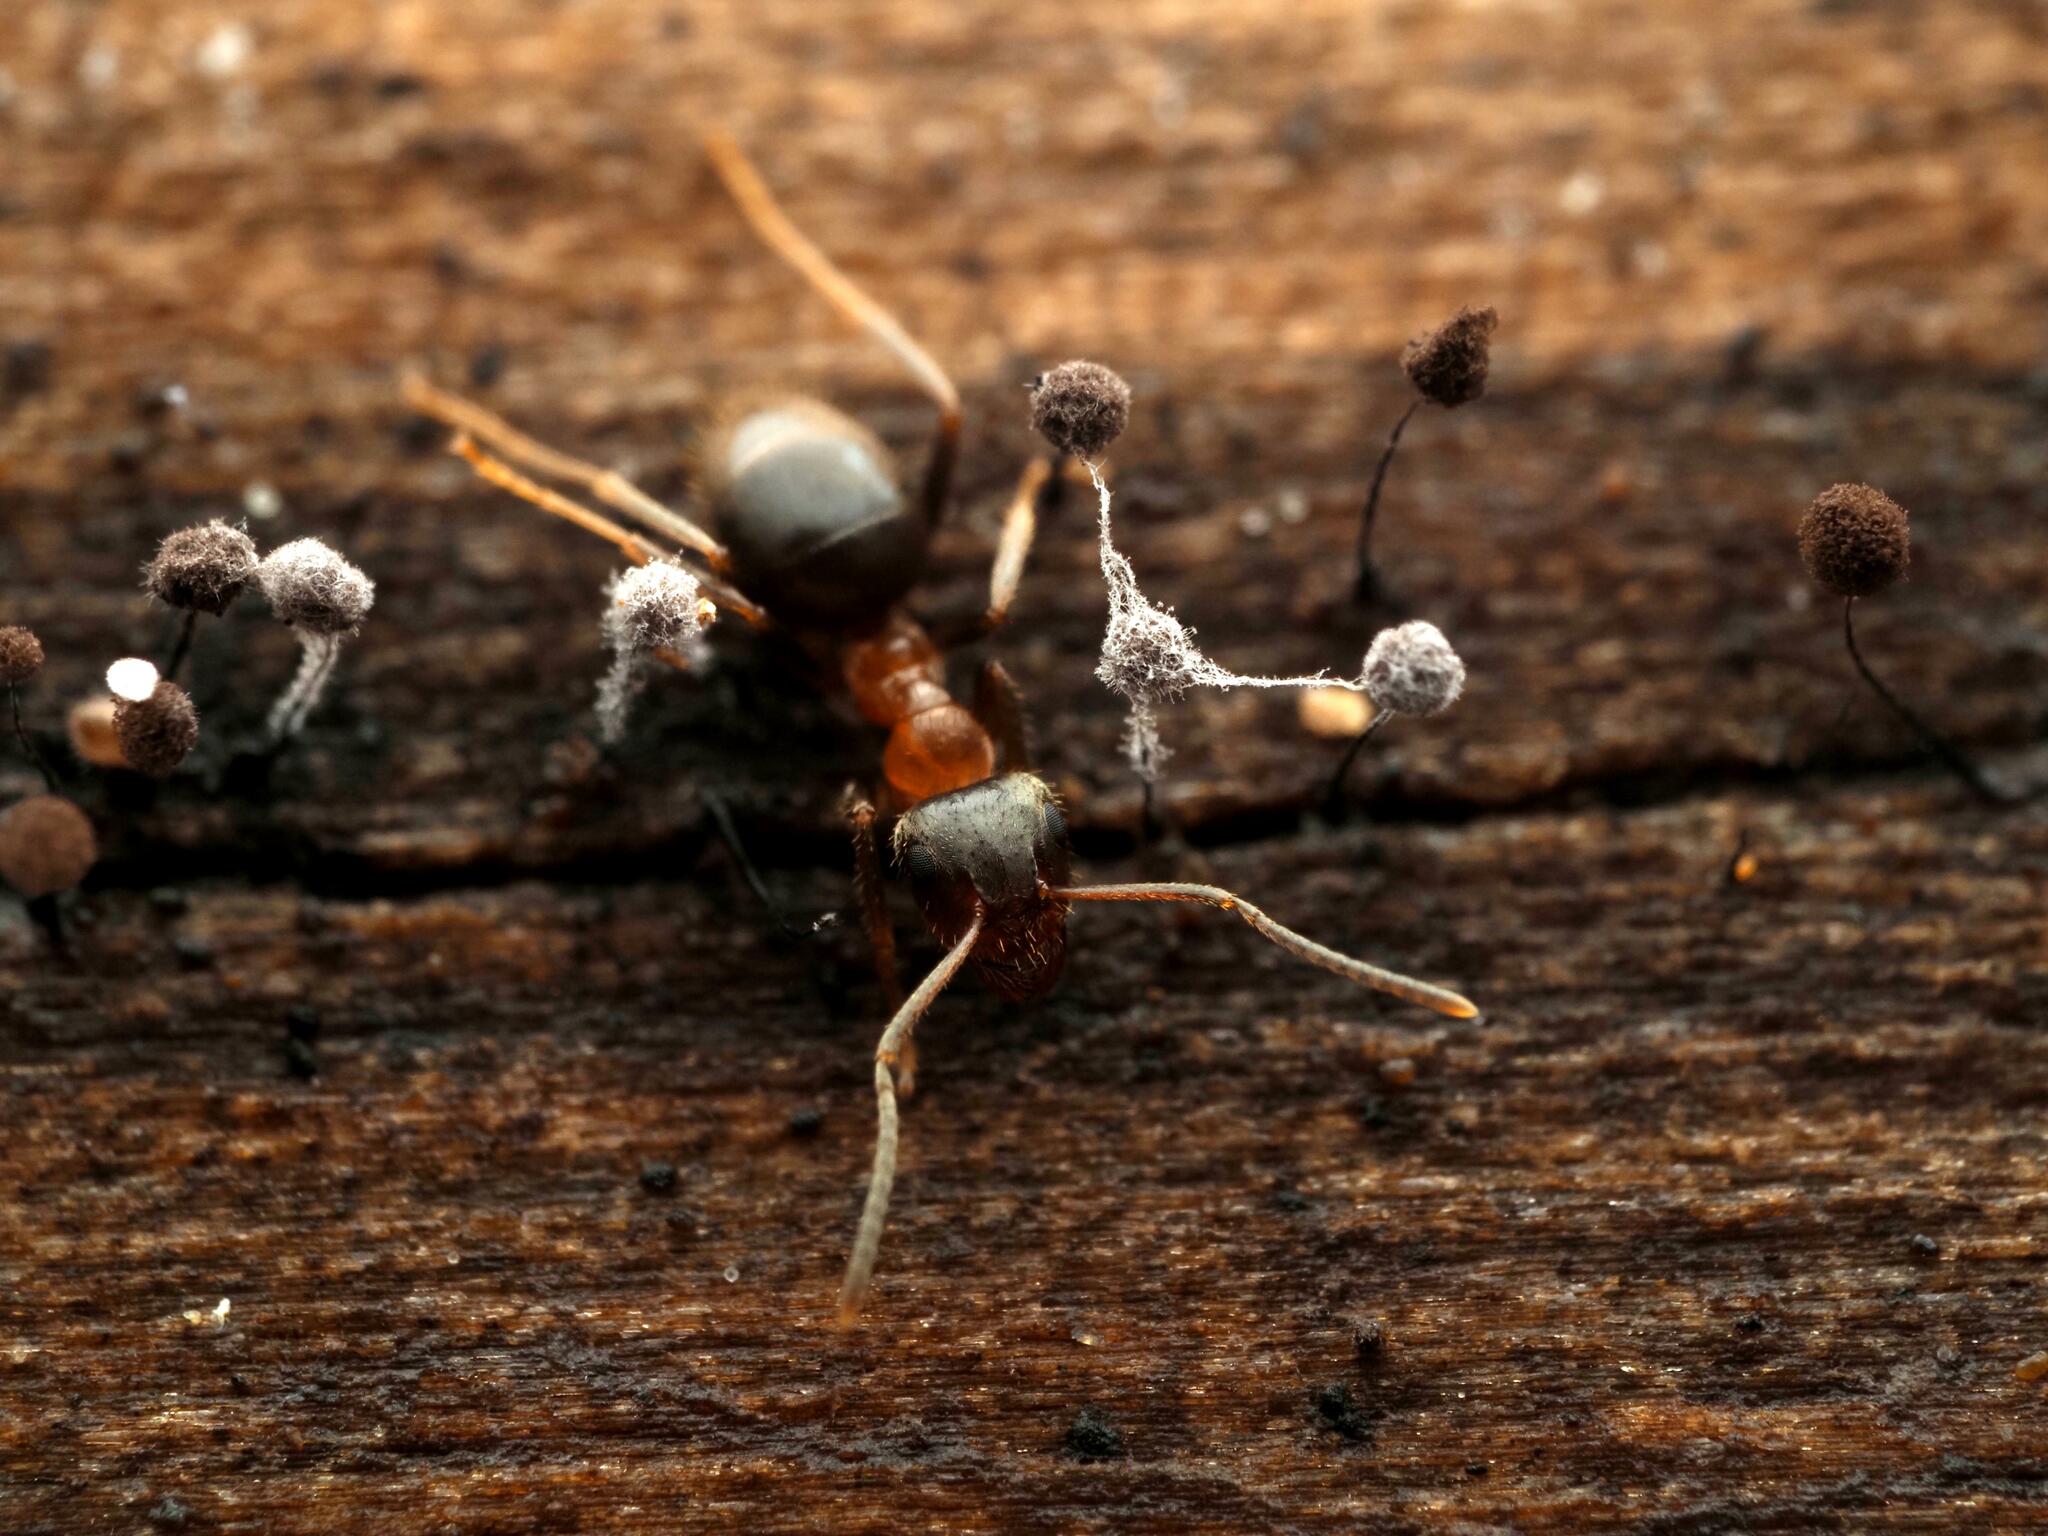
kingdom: Animalia
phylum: Arthropoda
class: Insecta
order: Hymenoptera
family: Formicidae
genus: Lasius
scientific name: Lasius emarginatus
